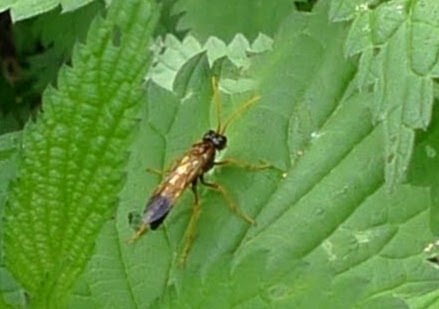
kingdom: Animalia
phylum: Arthropoda
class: Insecta
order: Hymenoptera
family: Tenthredinidae
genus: Tenthredo
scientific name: Tenthredo campestris
